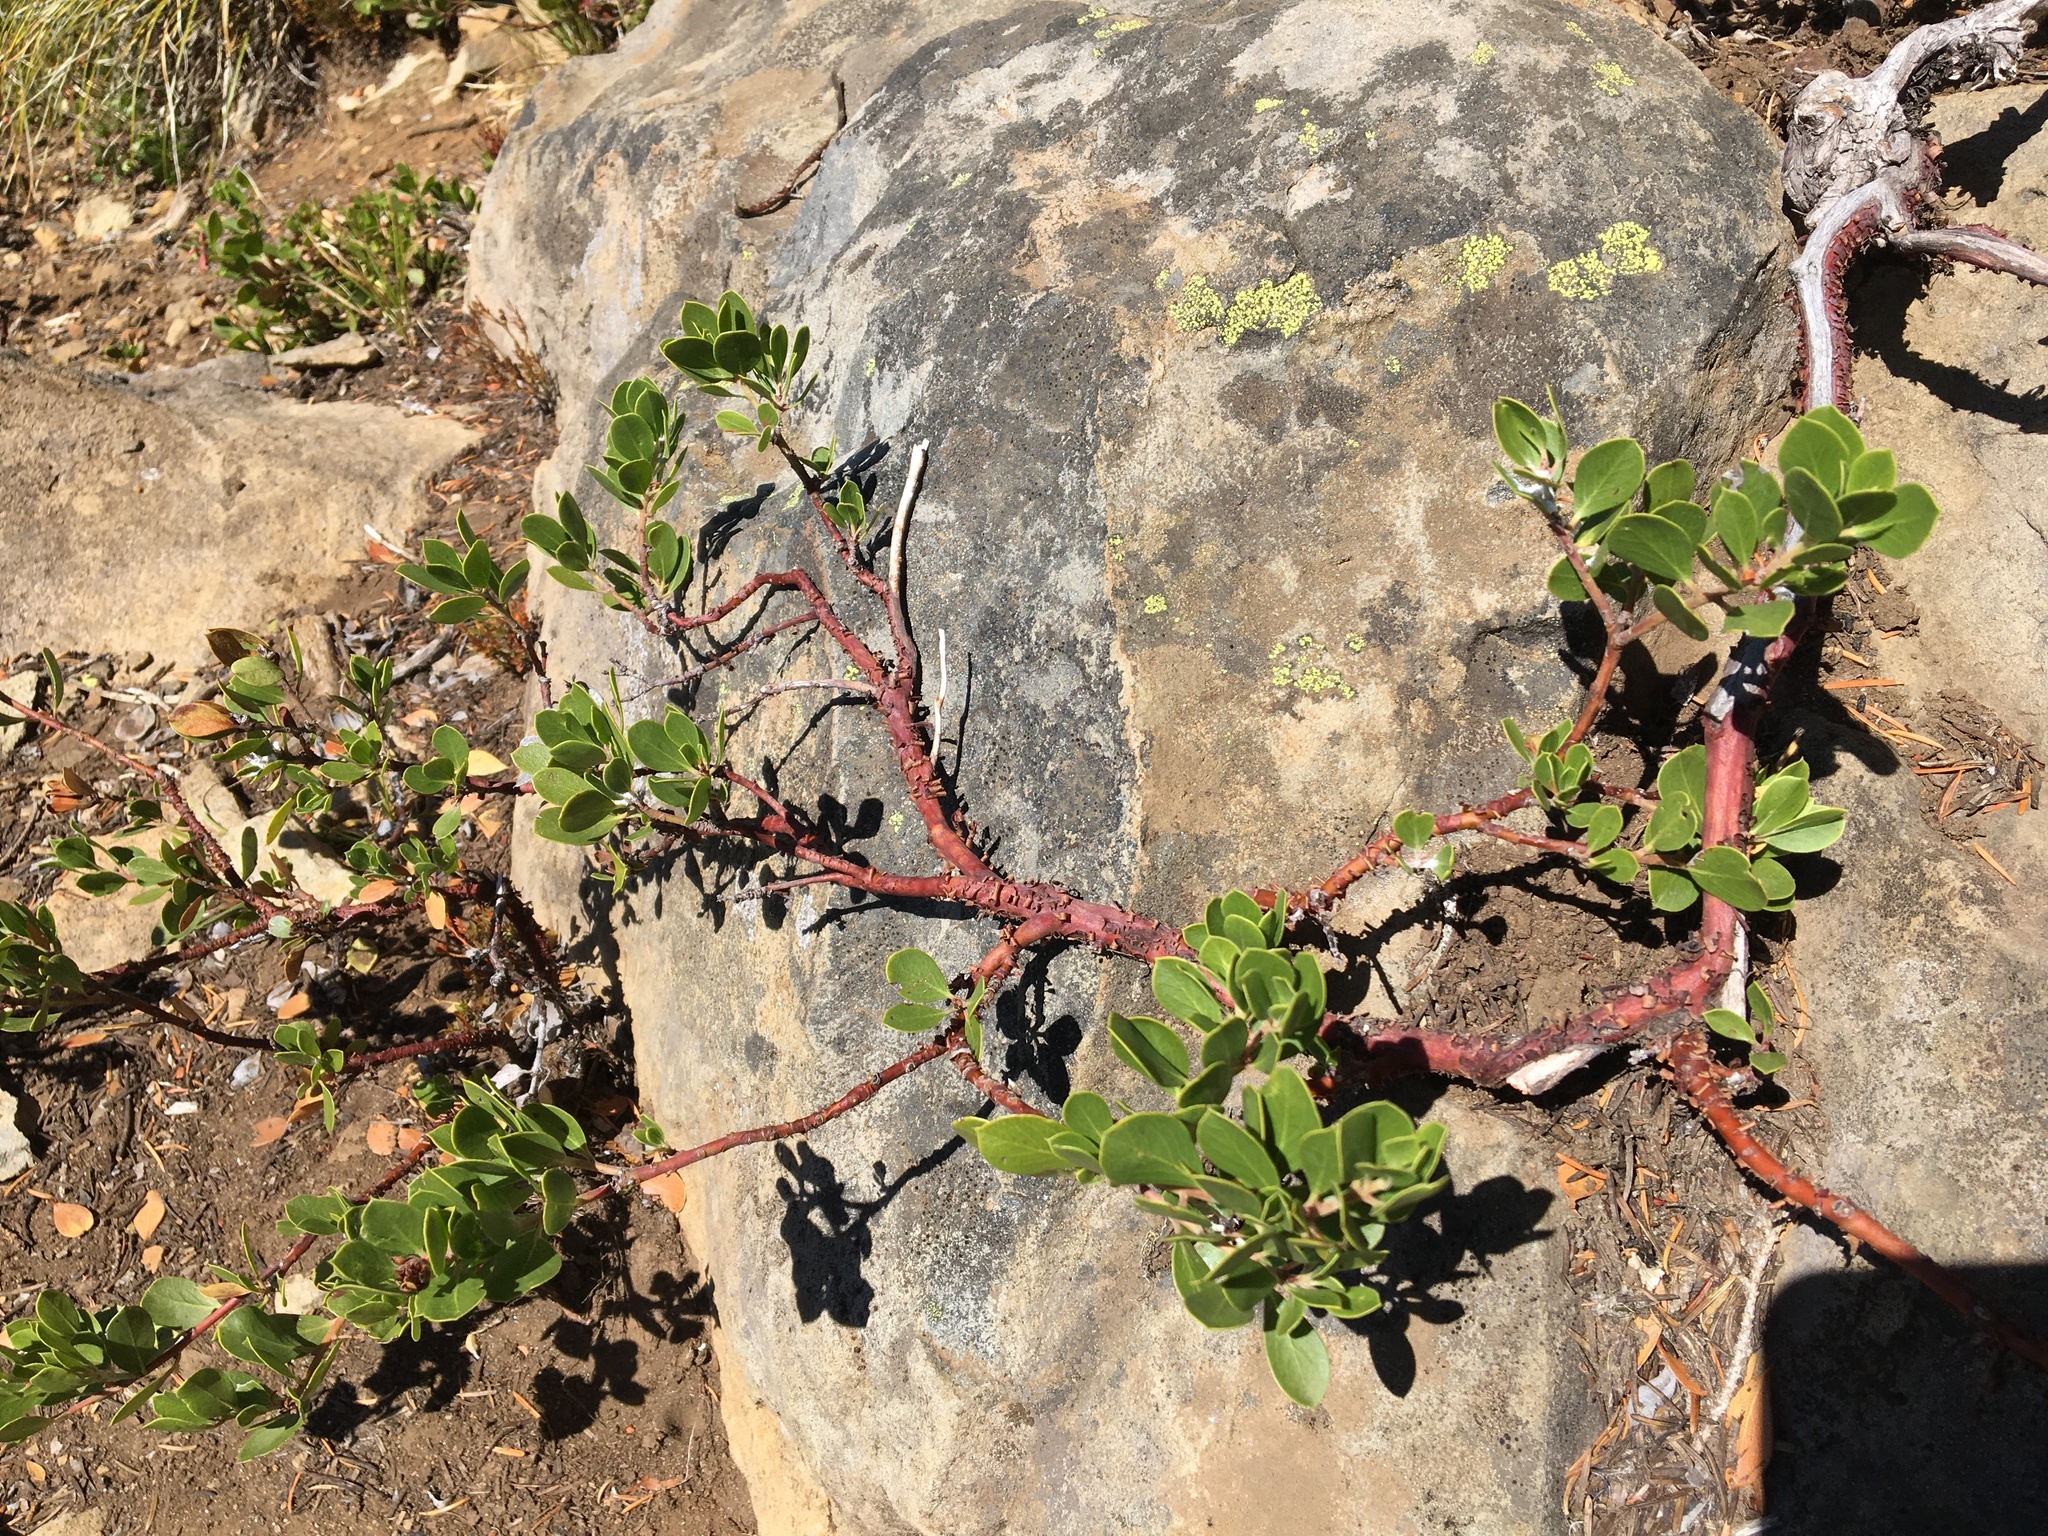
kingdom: Plantae
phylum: Tracheophyta
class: Magnoliopsida
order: Ericales
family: Ericaceae
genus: Arctostaphylos
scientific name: Arctostaphylos nevadensis
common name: Pinemat manzanita
